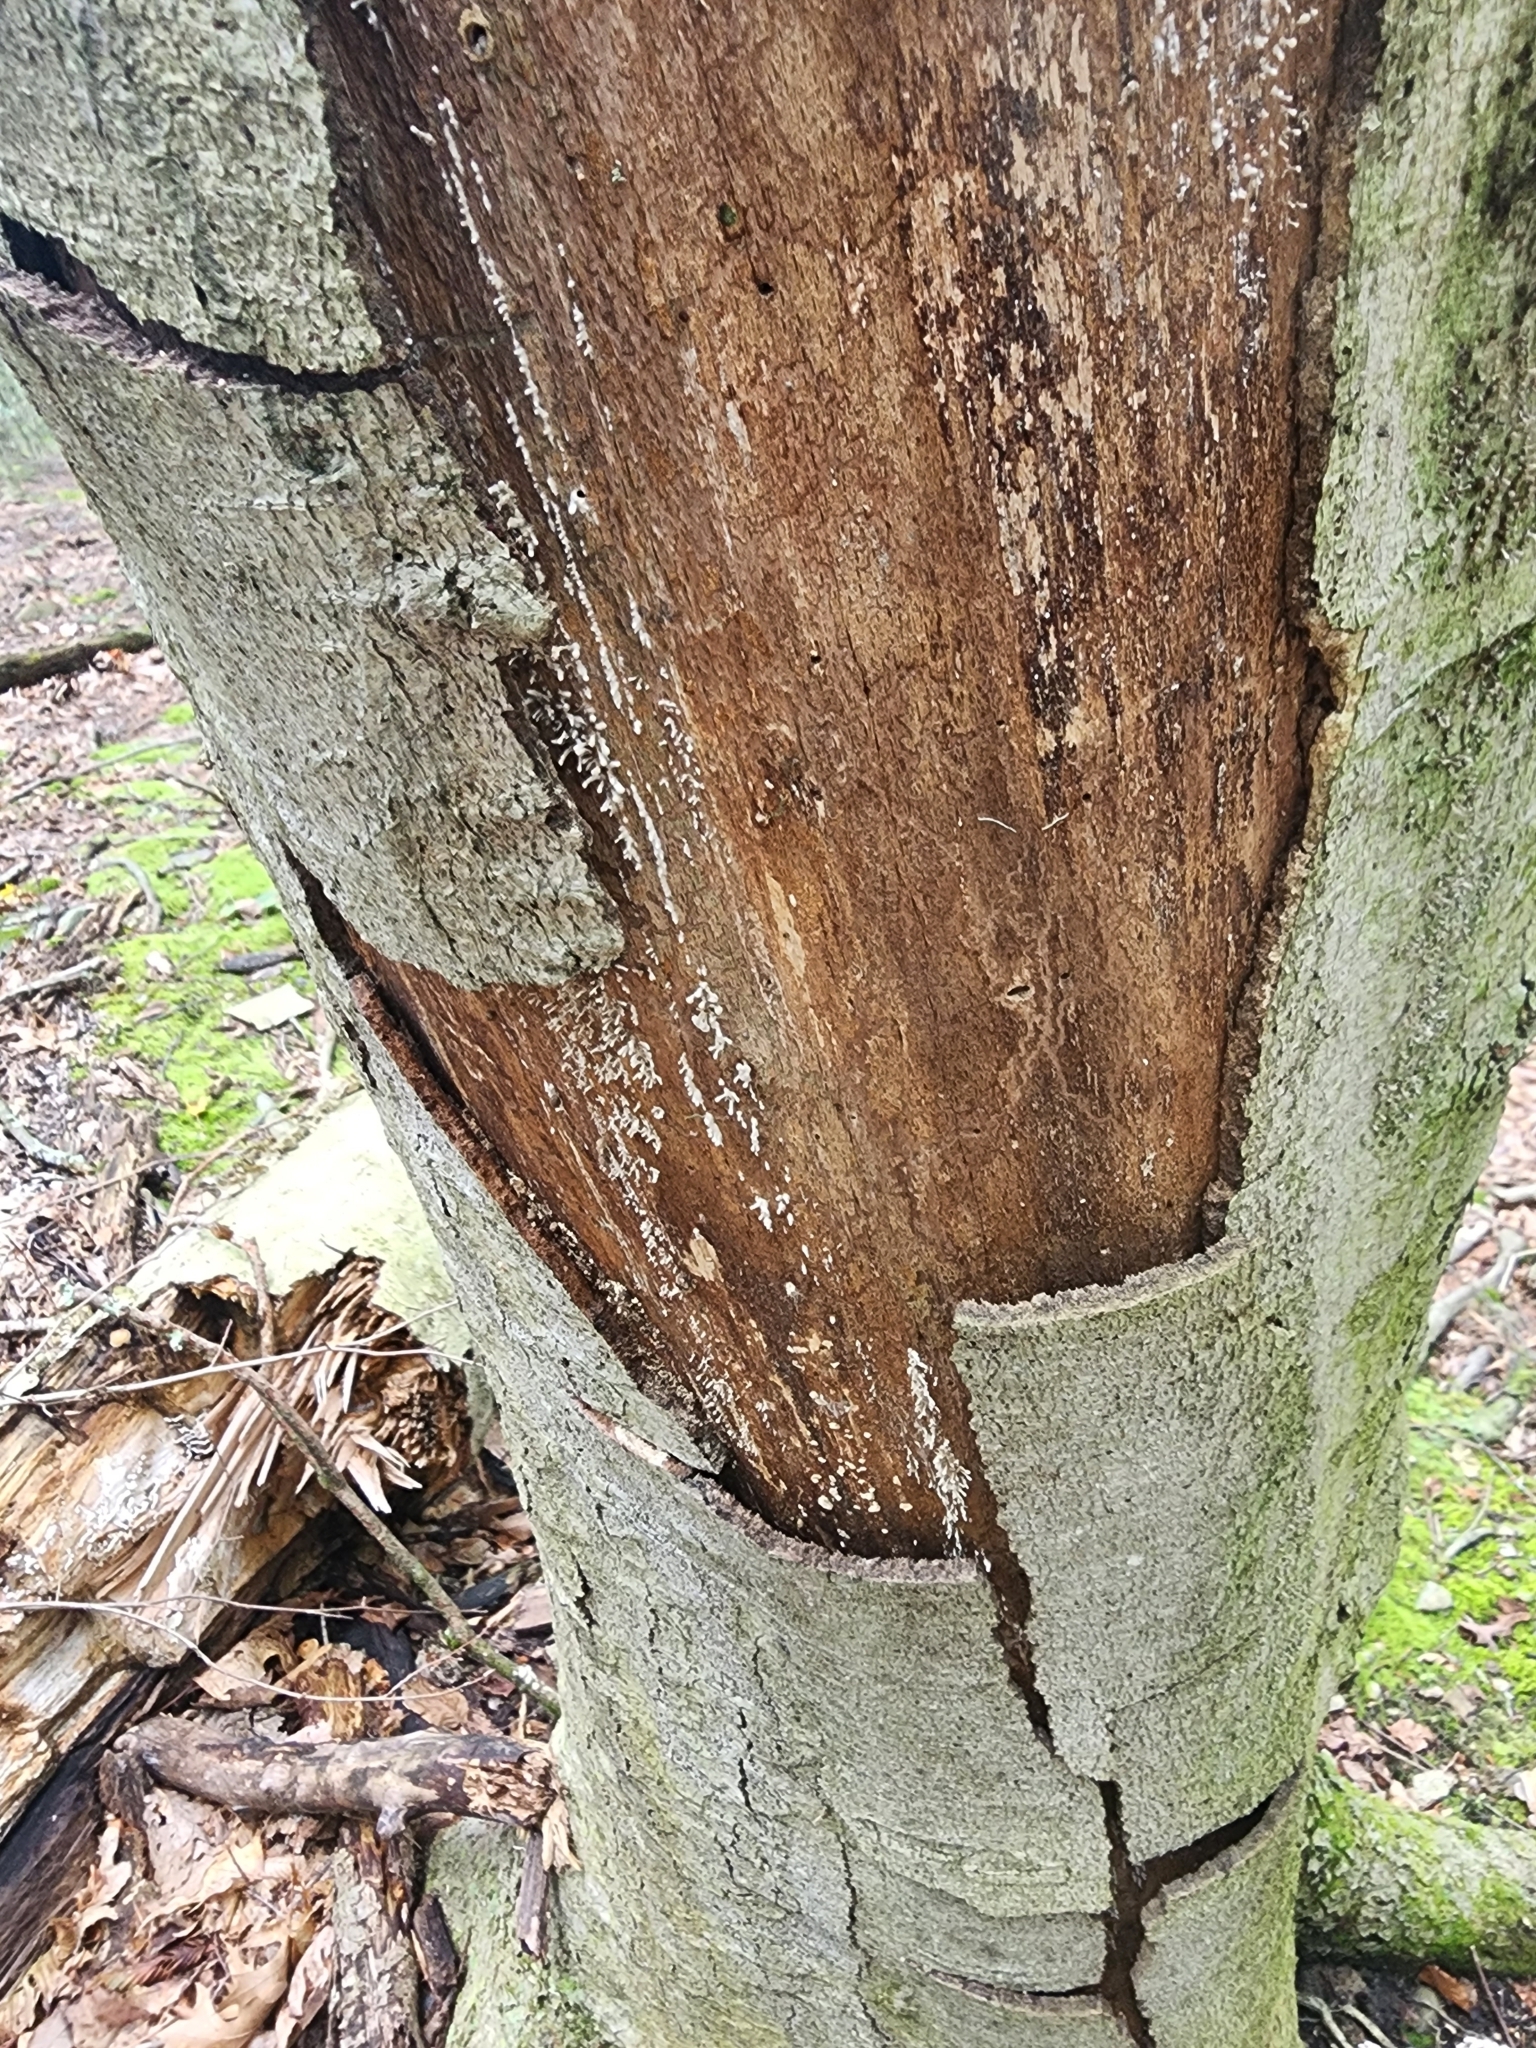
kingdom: Fungi
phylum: Basidiomycota
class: Atractiellomycetes
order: Atractiellales
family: Phleogenaceae
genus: Phleogena
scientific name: Phleogena faginea
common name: Fenugreek stalkball
